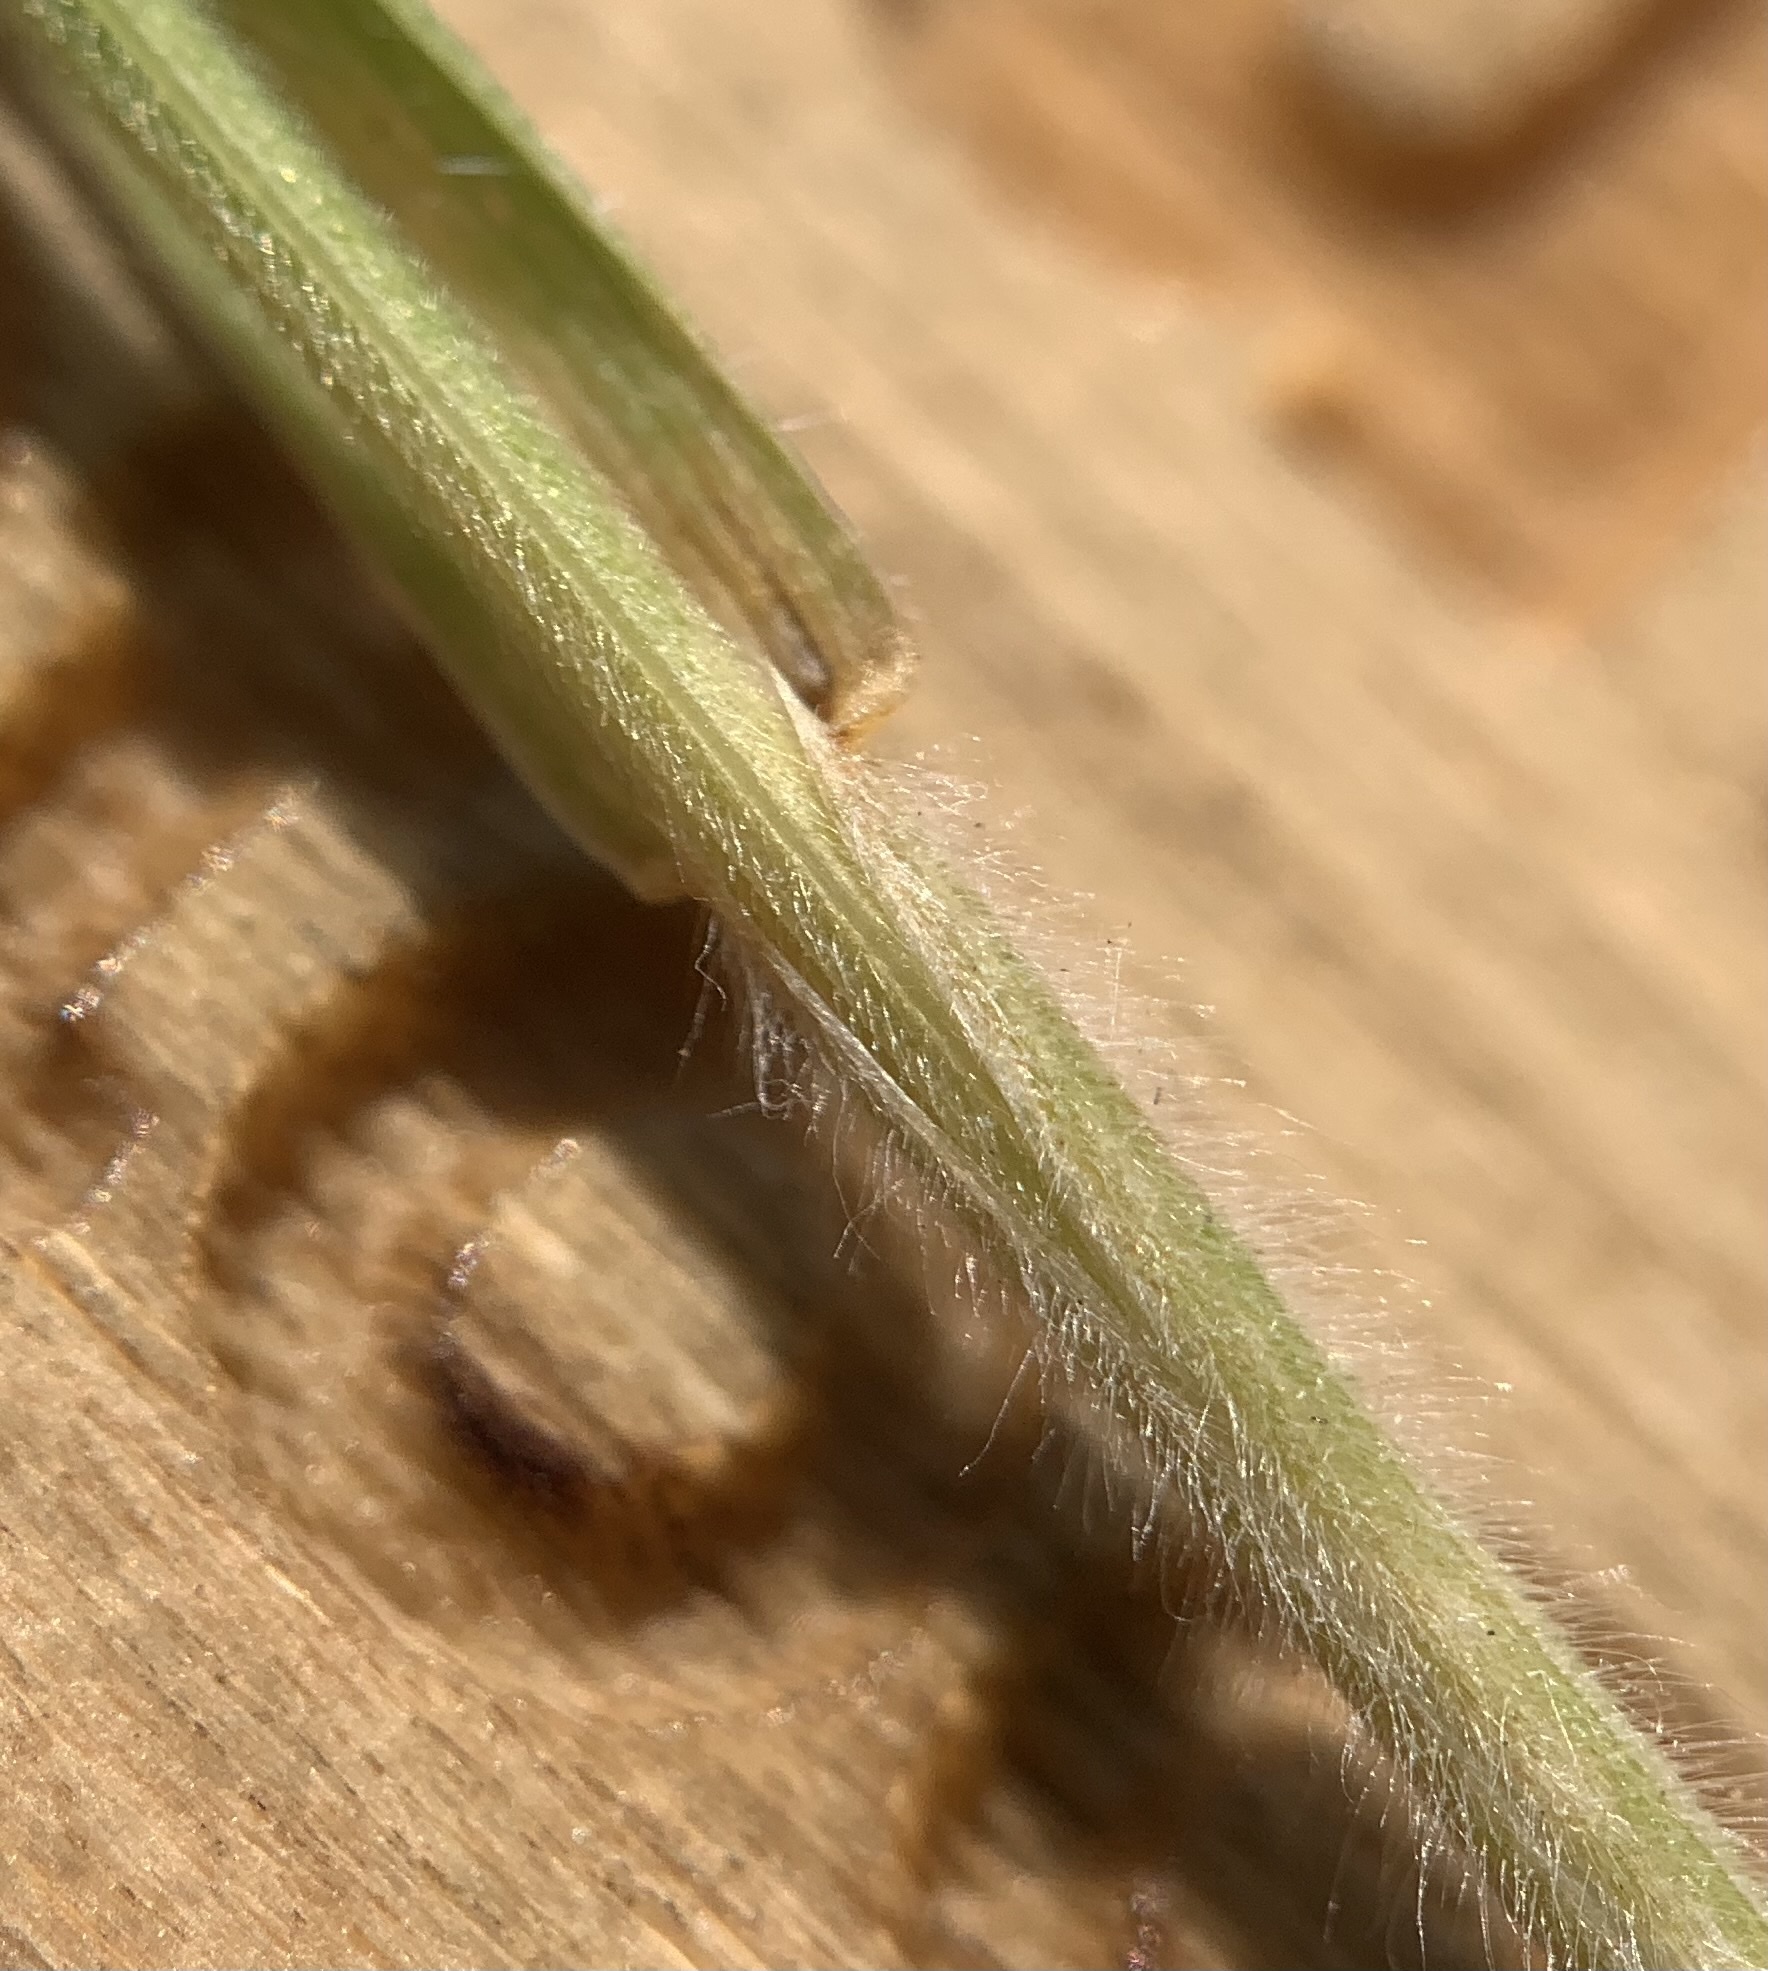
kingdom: Plantae
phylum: Tracheophyta
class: Liliopsida
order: Poales
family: Poaceae
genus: Bromus
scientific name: Bromus hordeaceus
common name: Soft brome
